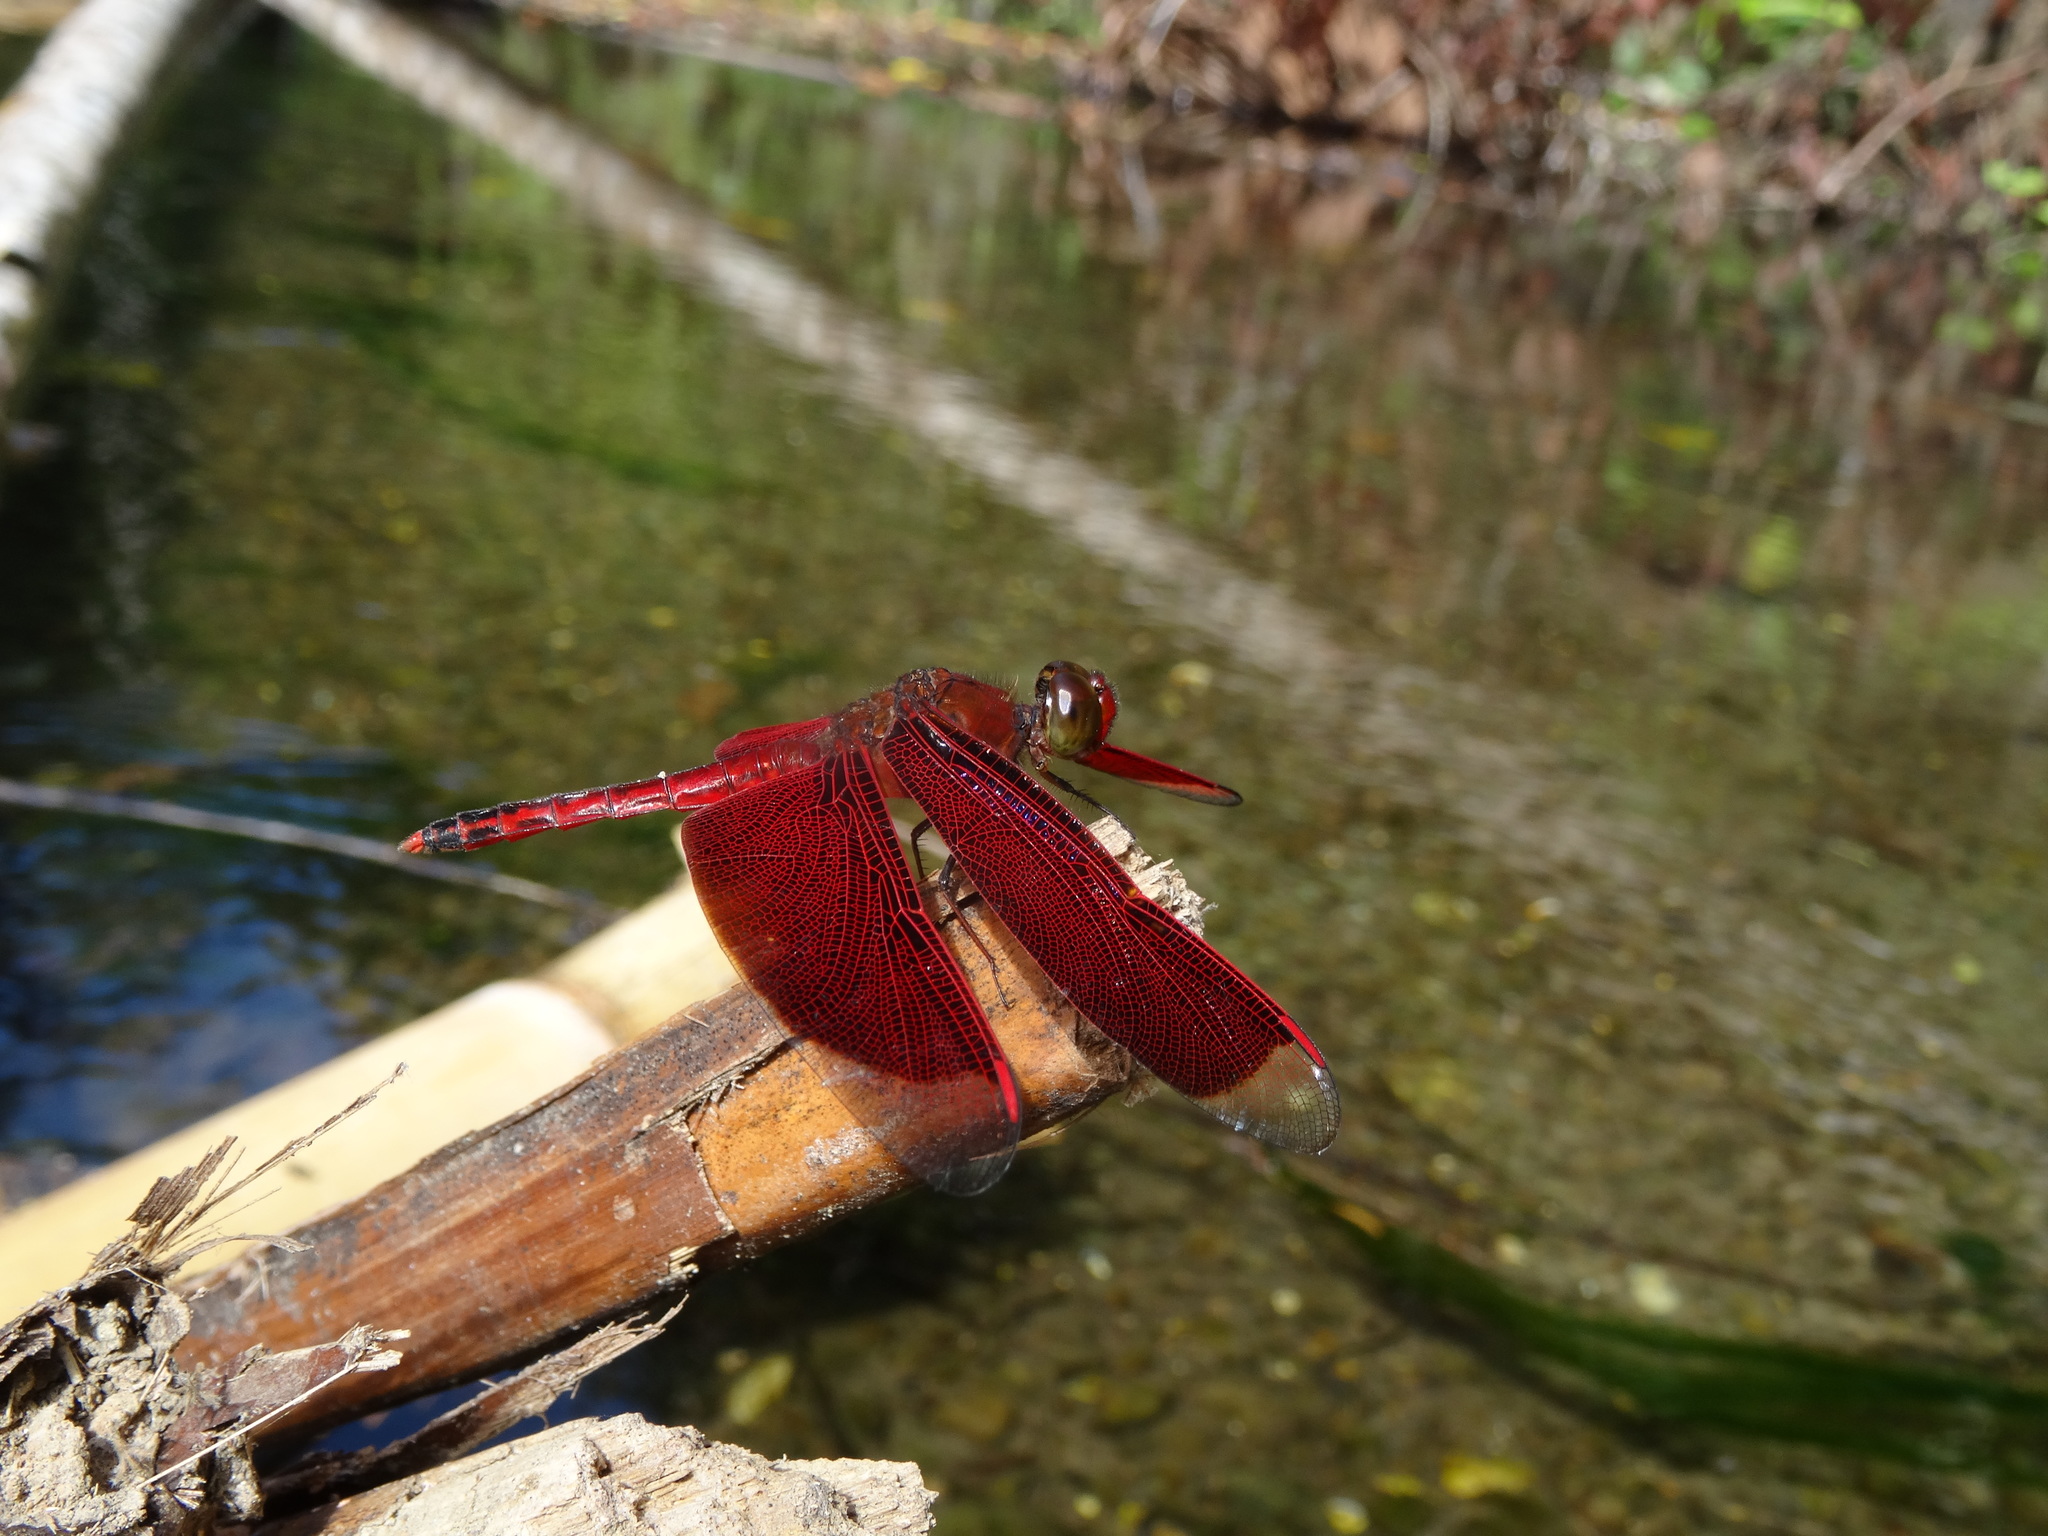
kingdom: Animalia
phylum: Arthropoda
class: Insecta
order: Odonata
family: Libellulidae
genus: Neurothemis
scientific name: Neurothemis ramburii
